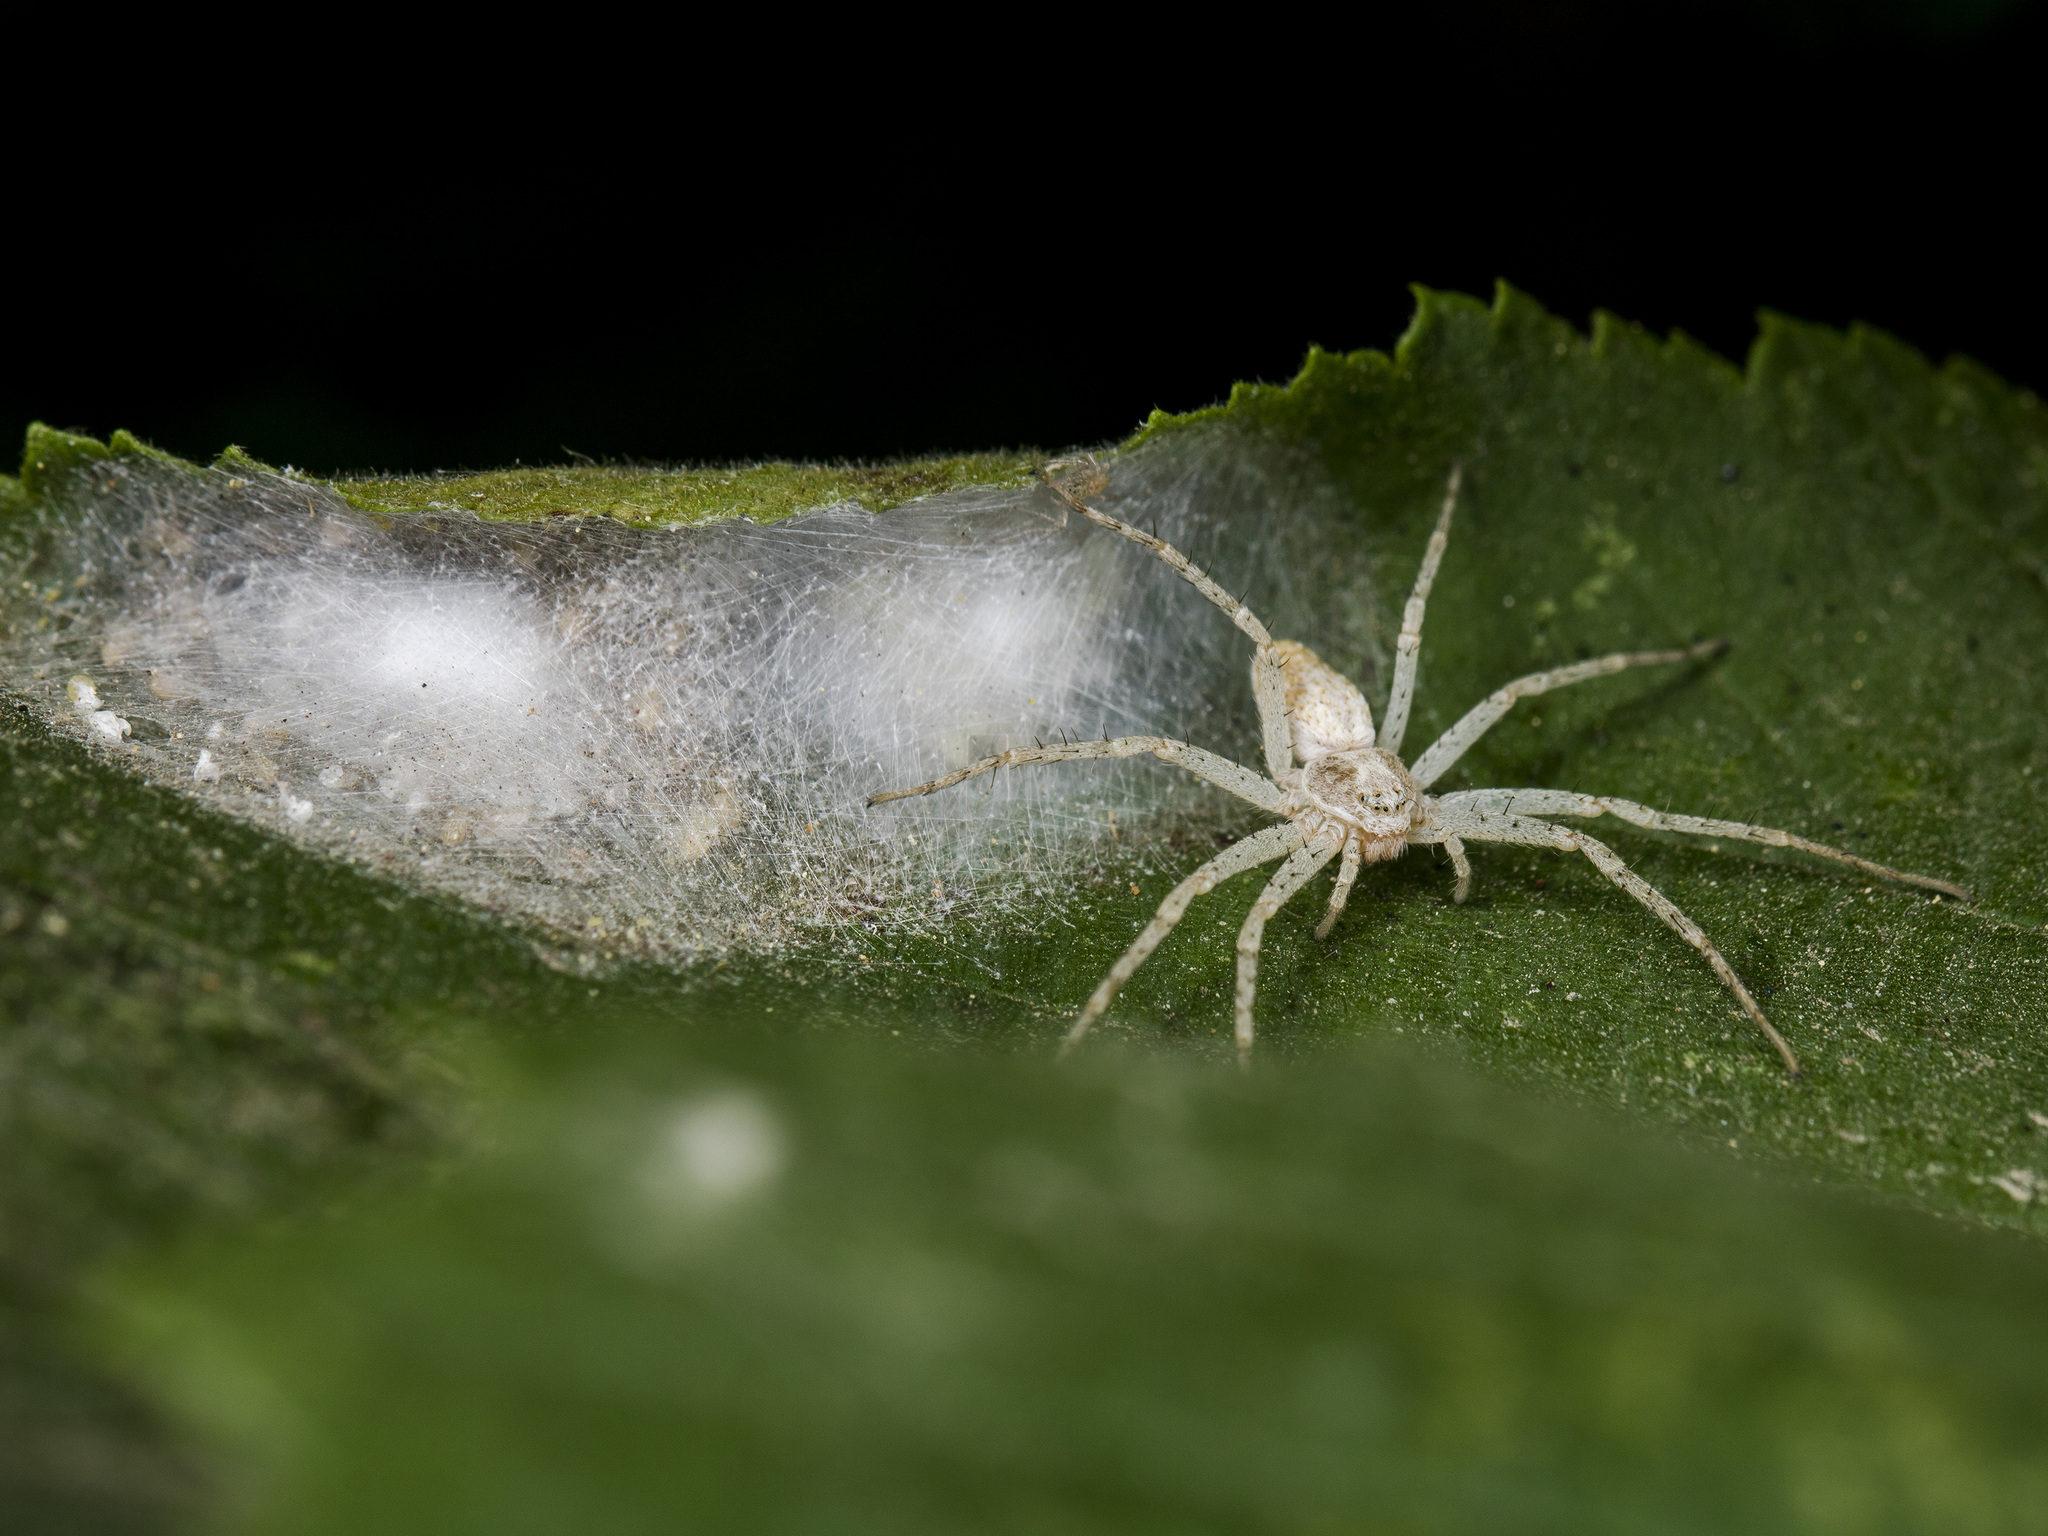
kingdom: Animalia
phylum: Arthropoda
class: Arachnida
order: Araneae
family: Philodromidae
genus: Philodromus
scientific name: Philodromus longipalpis
